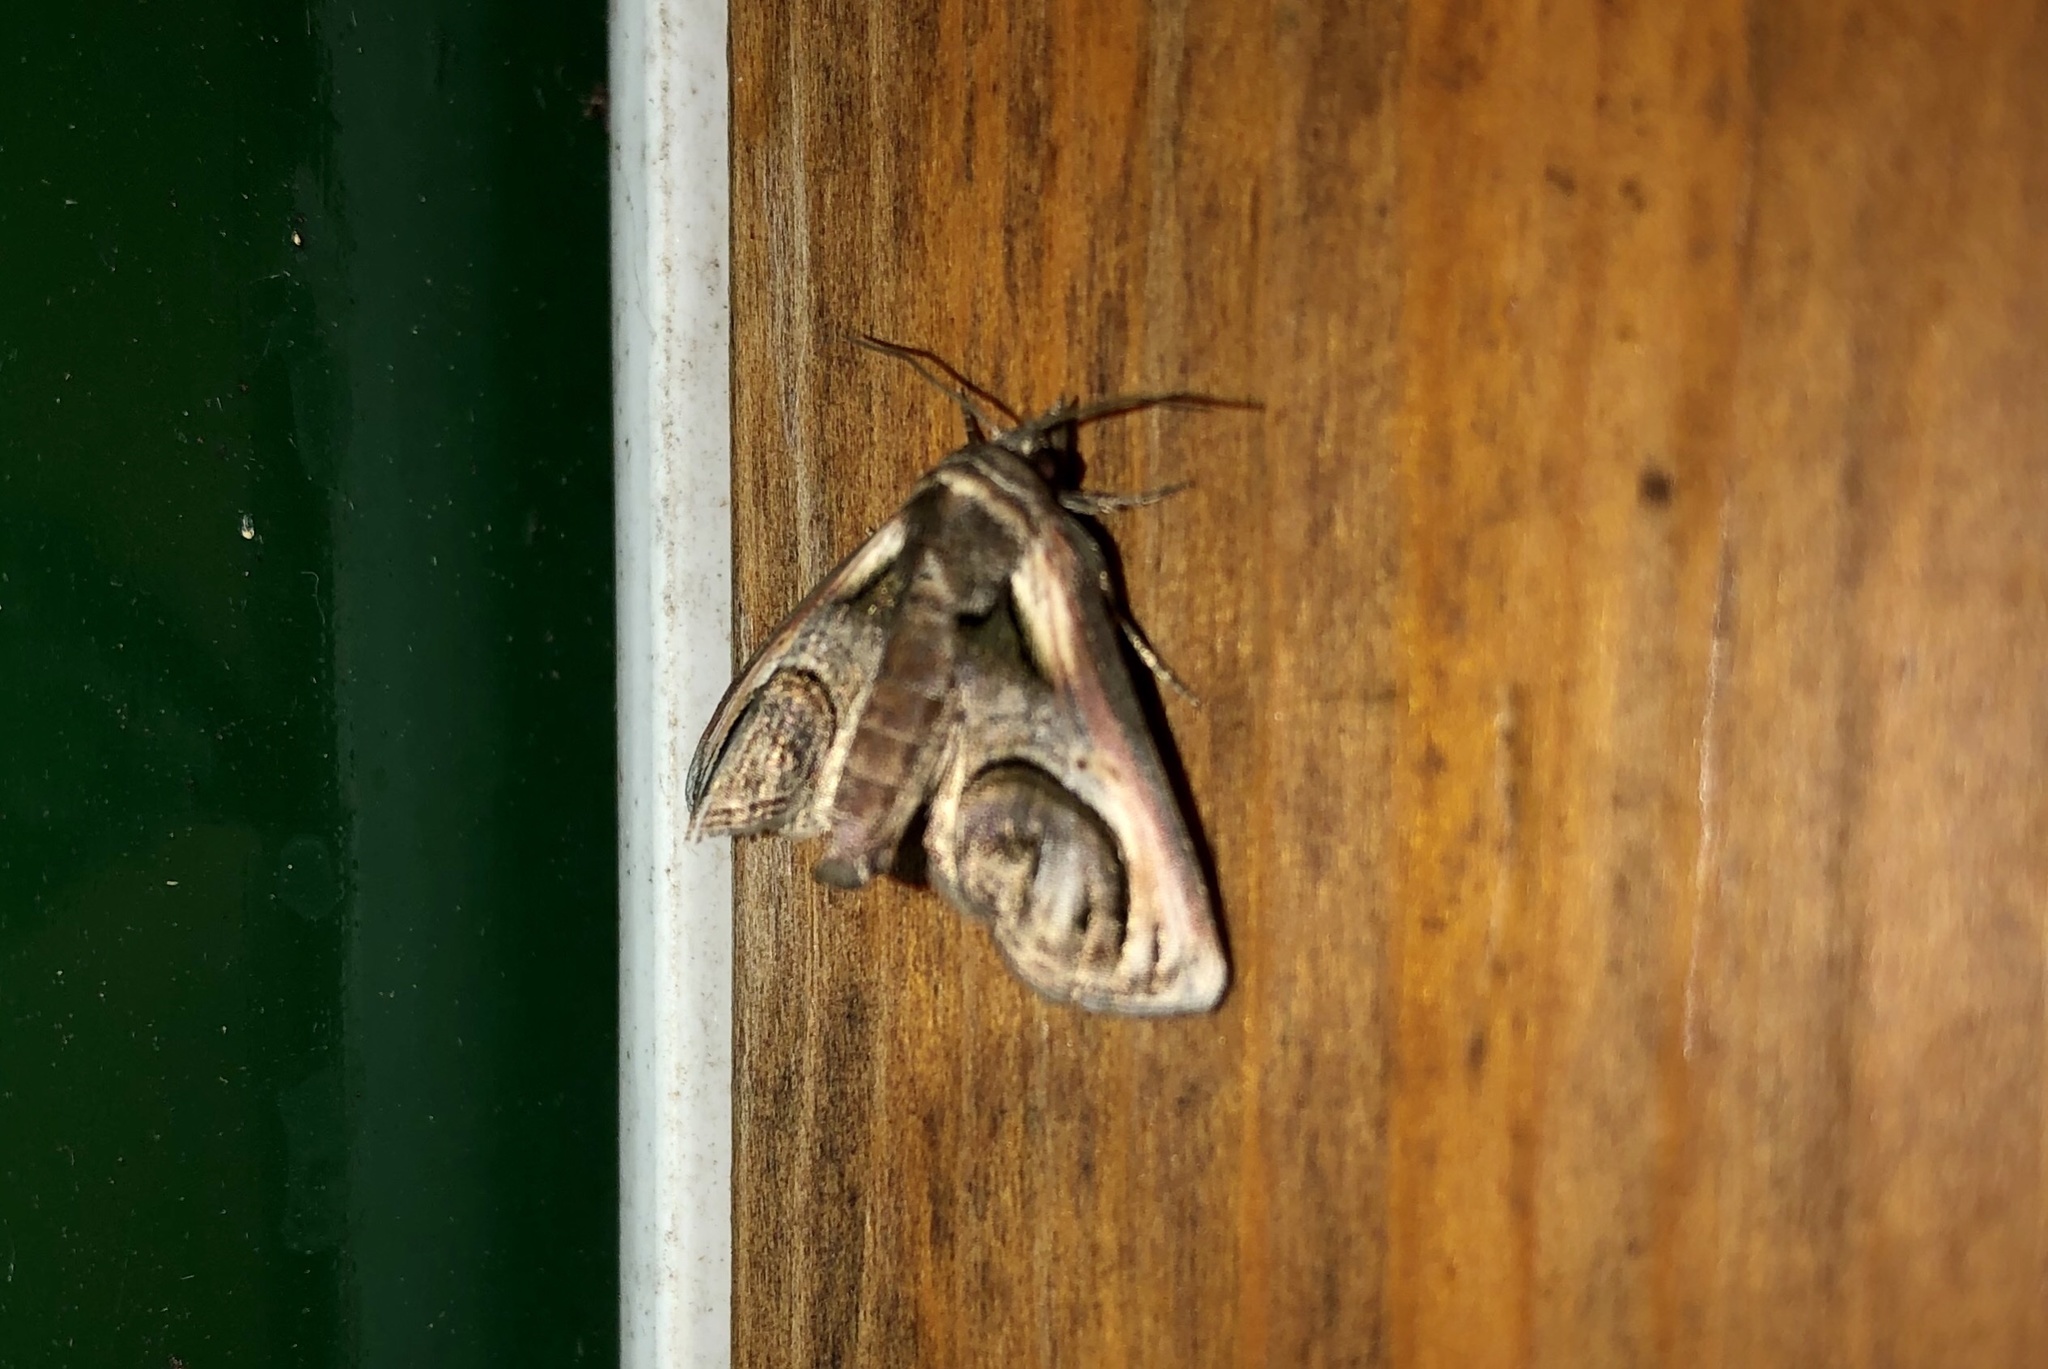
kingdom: Animalia
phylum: Arthropoda
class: Insecta
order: Lepidoptera
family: Euteliidae
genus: Paectes
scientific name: Paectes oculatrix
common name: Eyed paectes moth
